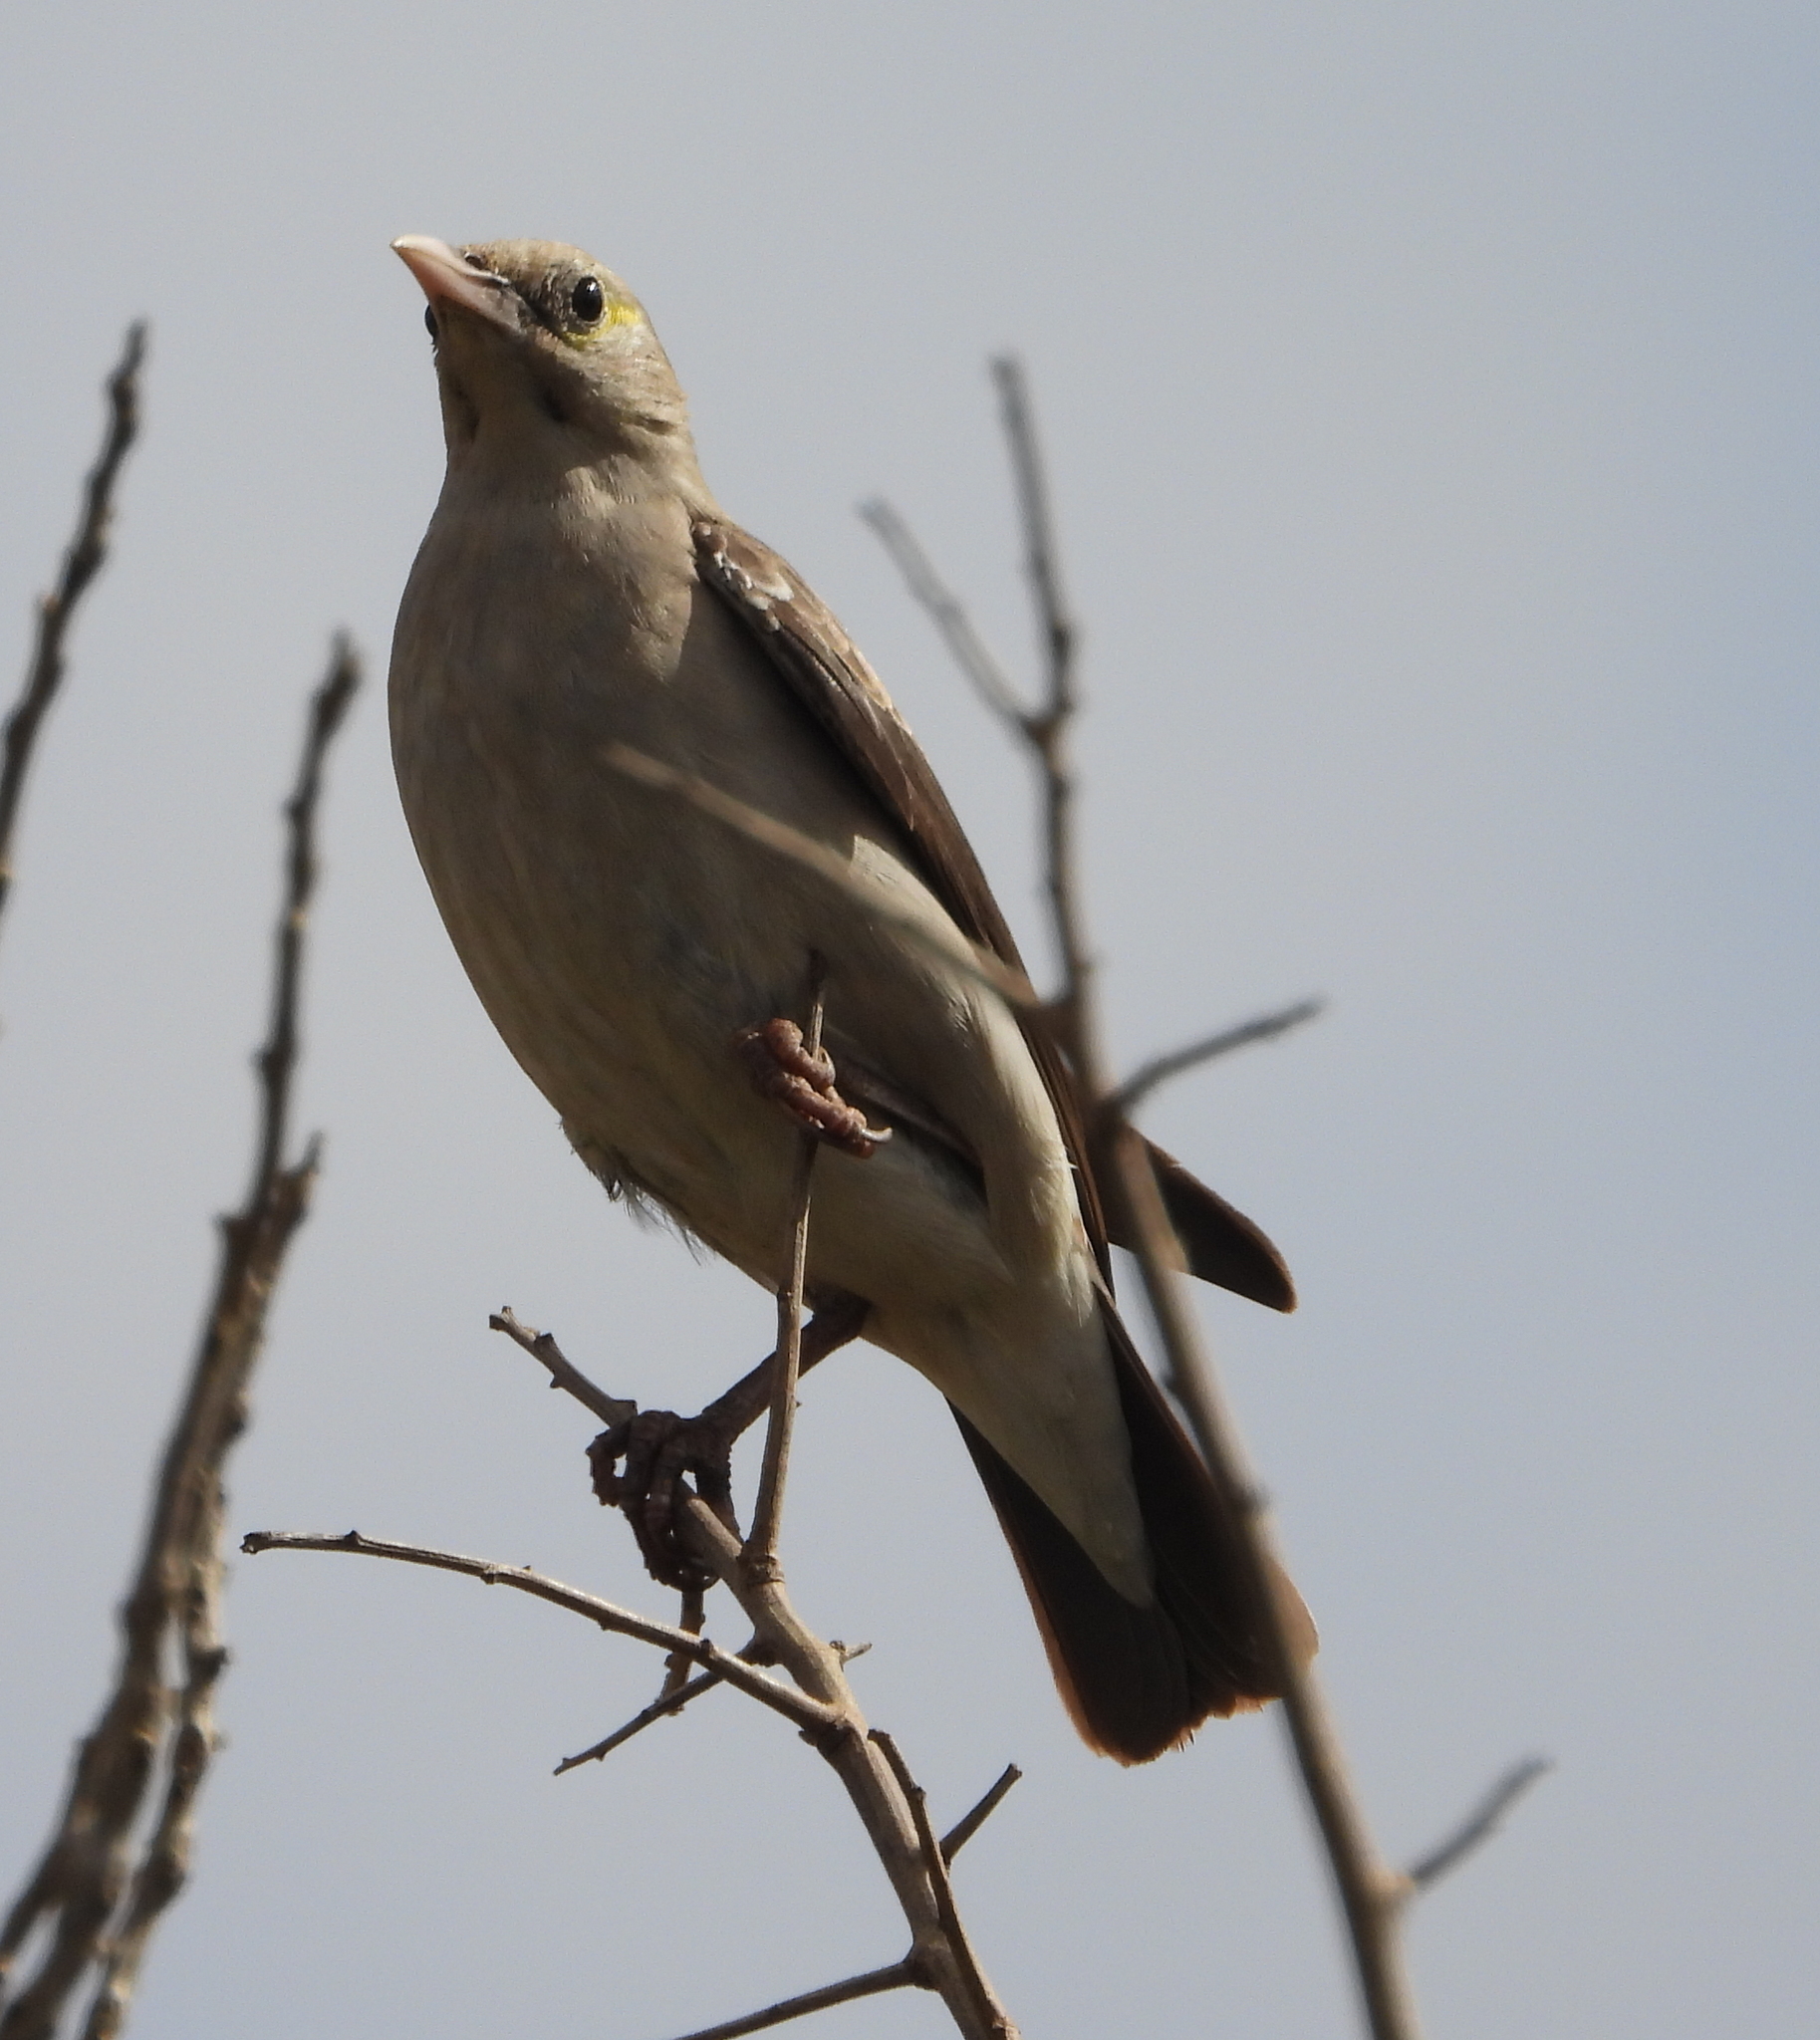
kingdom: Animalia
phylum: Chordata
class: Aves
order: Passeriformes
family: Sturnidae
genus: Creatophora
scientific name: Creatophora cinerea
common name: Wattled starling
